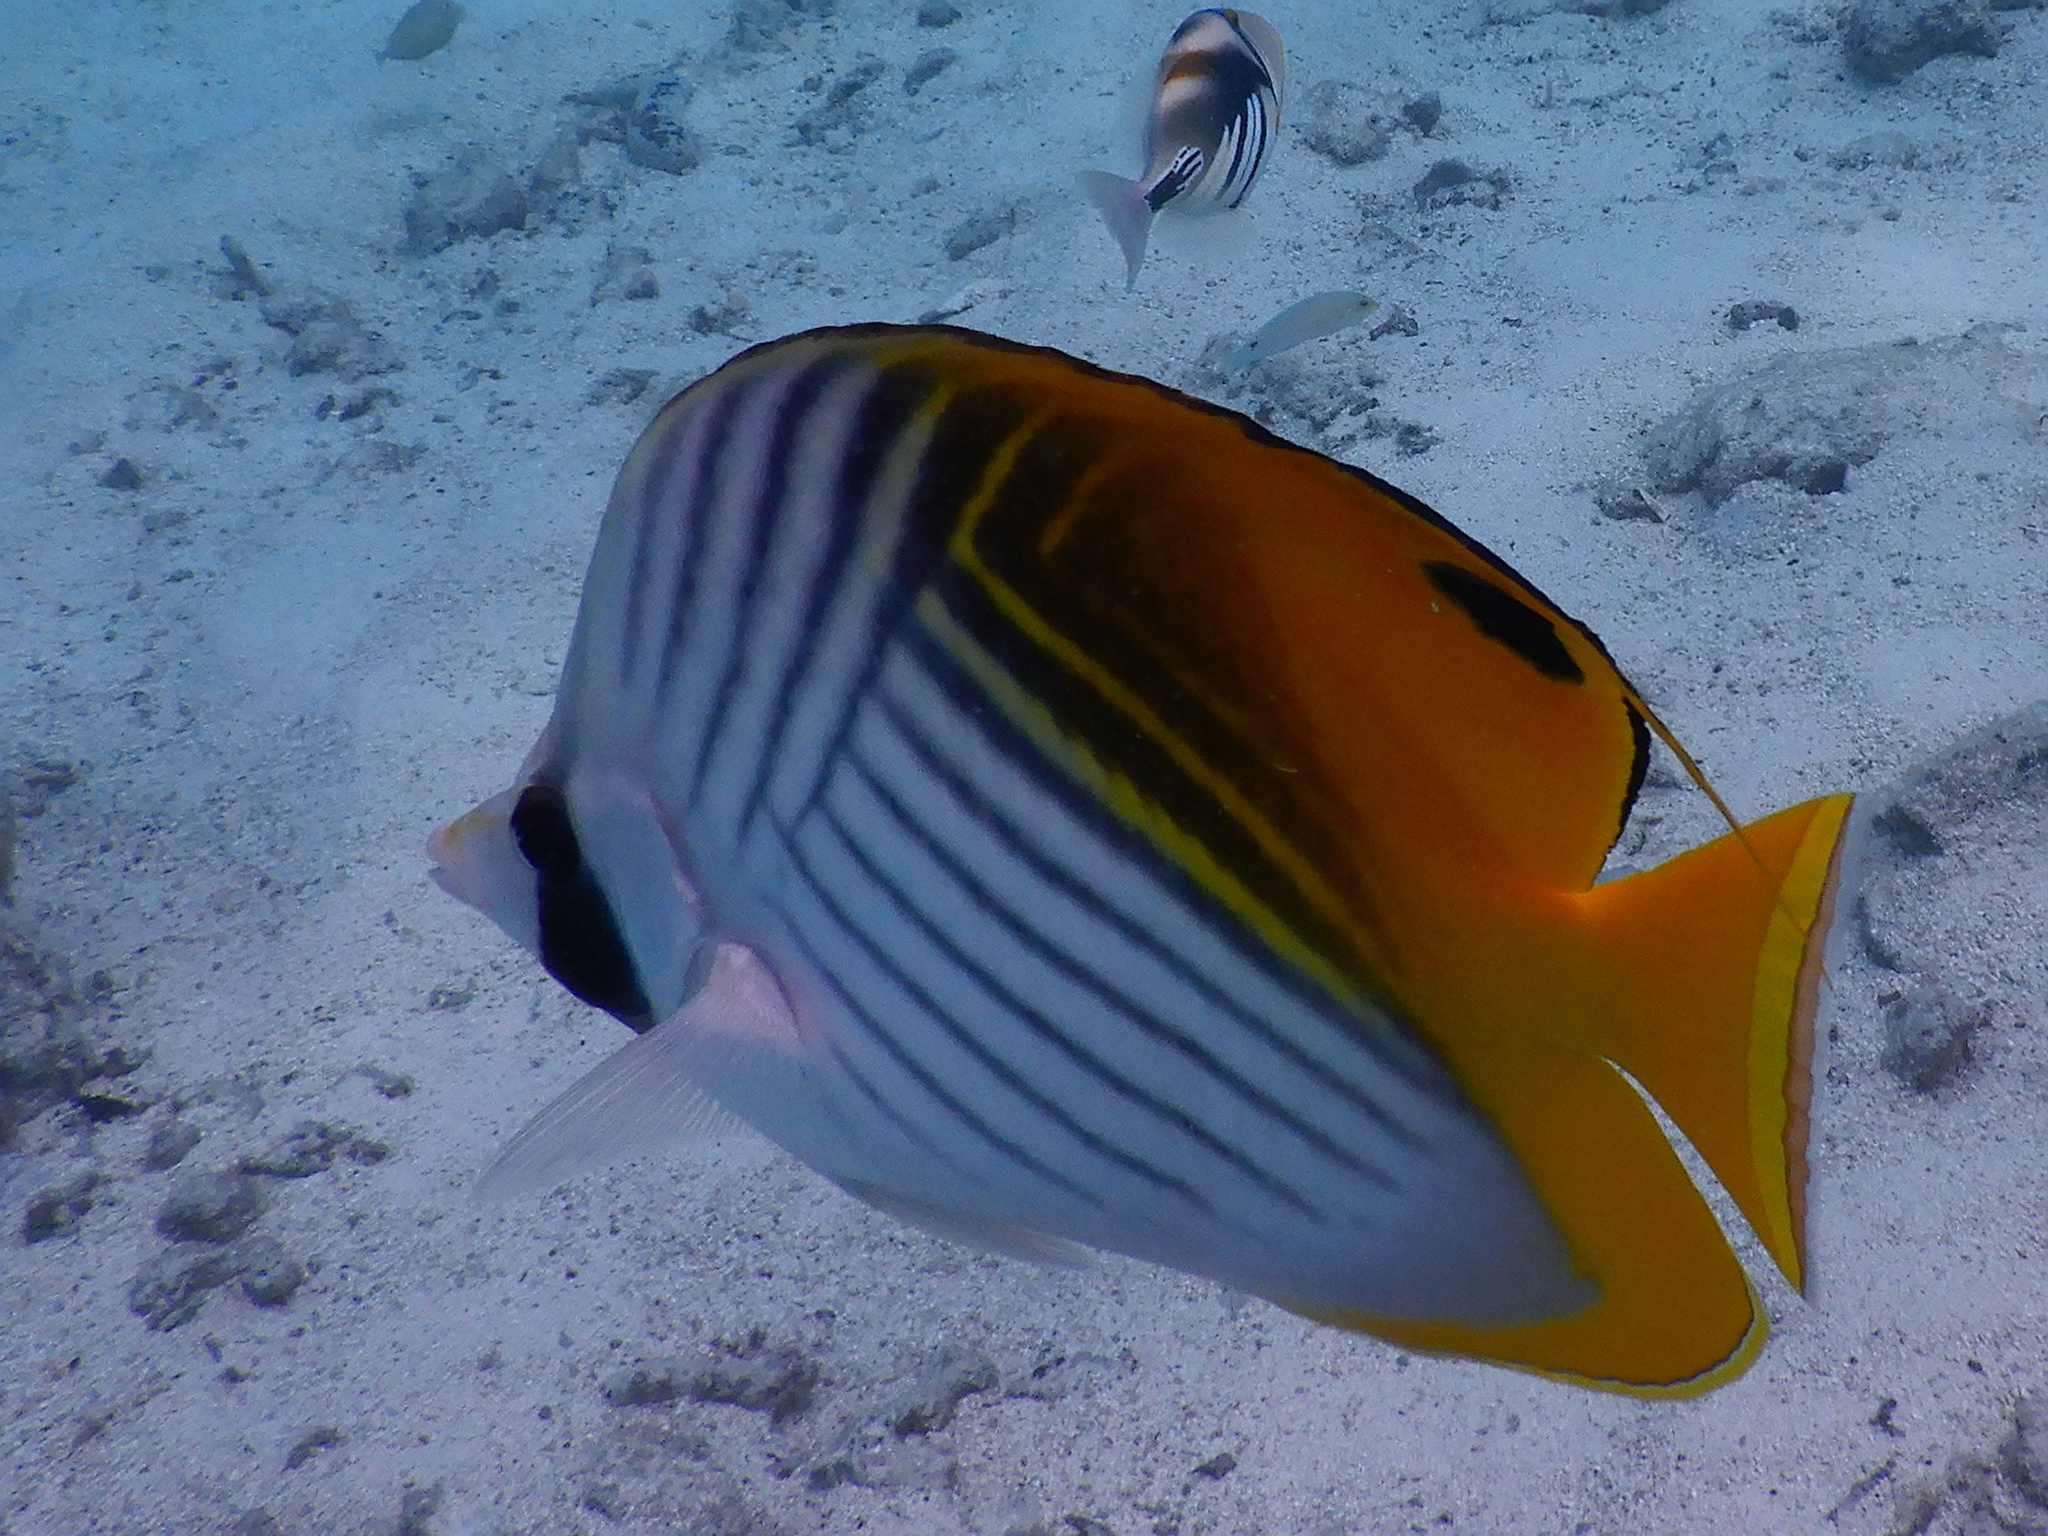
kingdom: Animalia
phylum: Chordata
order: Perciformes
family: Chaetodontidae
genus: Chaetodon
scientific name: Chaetodon auriga
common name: Threadfin butterflyfish
